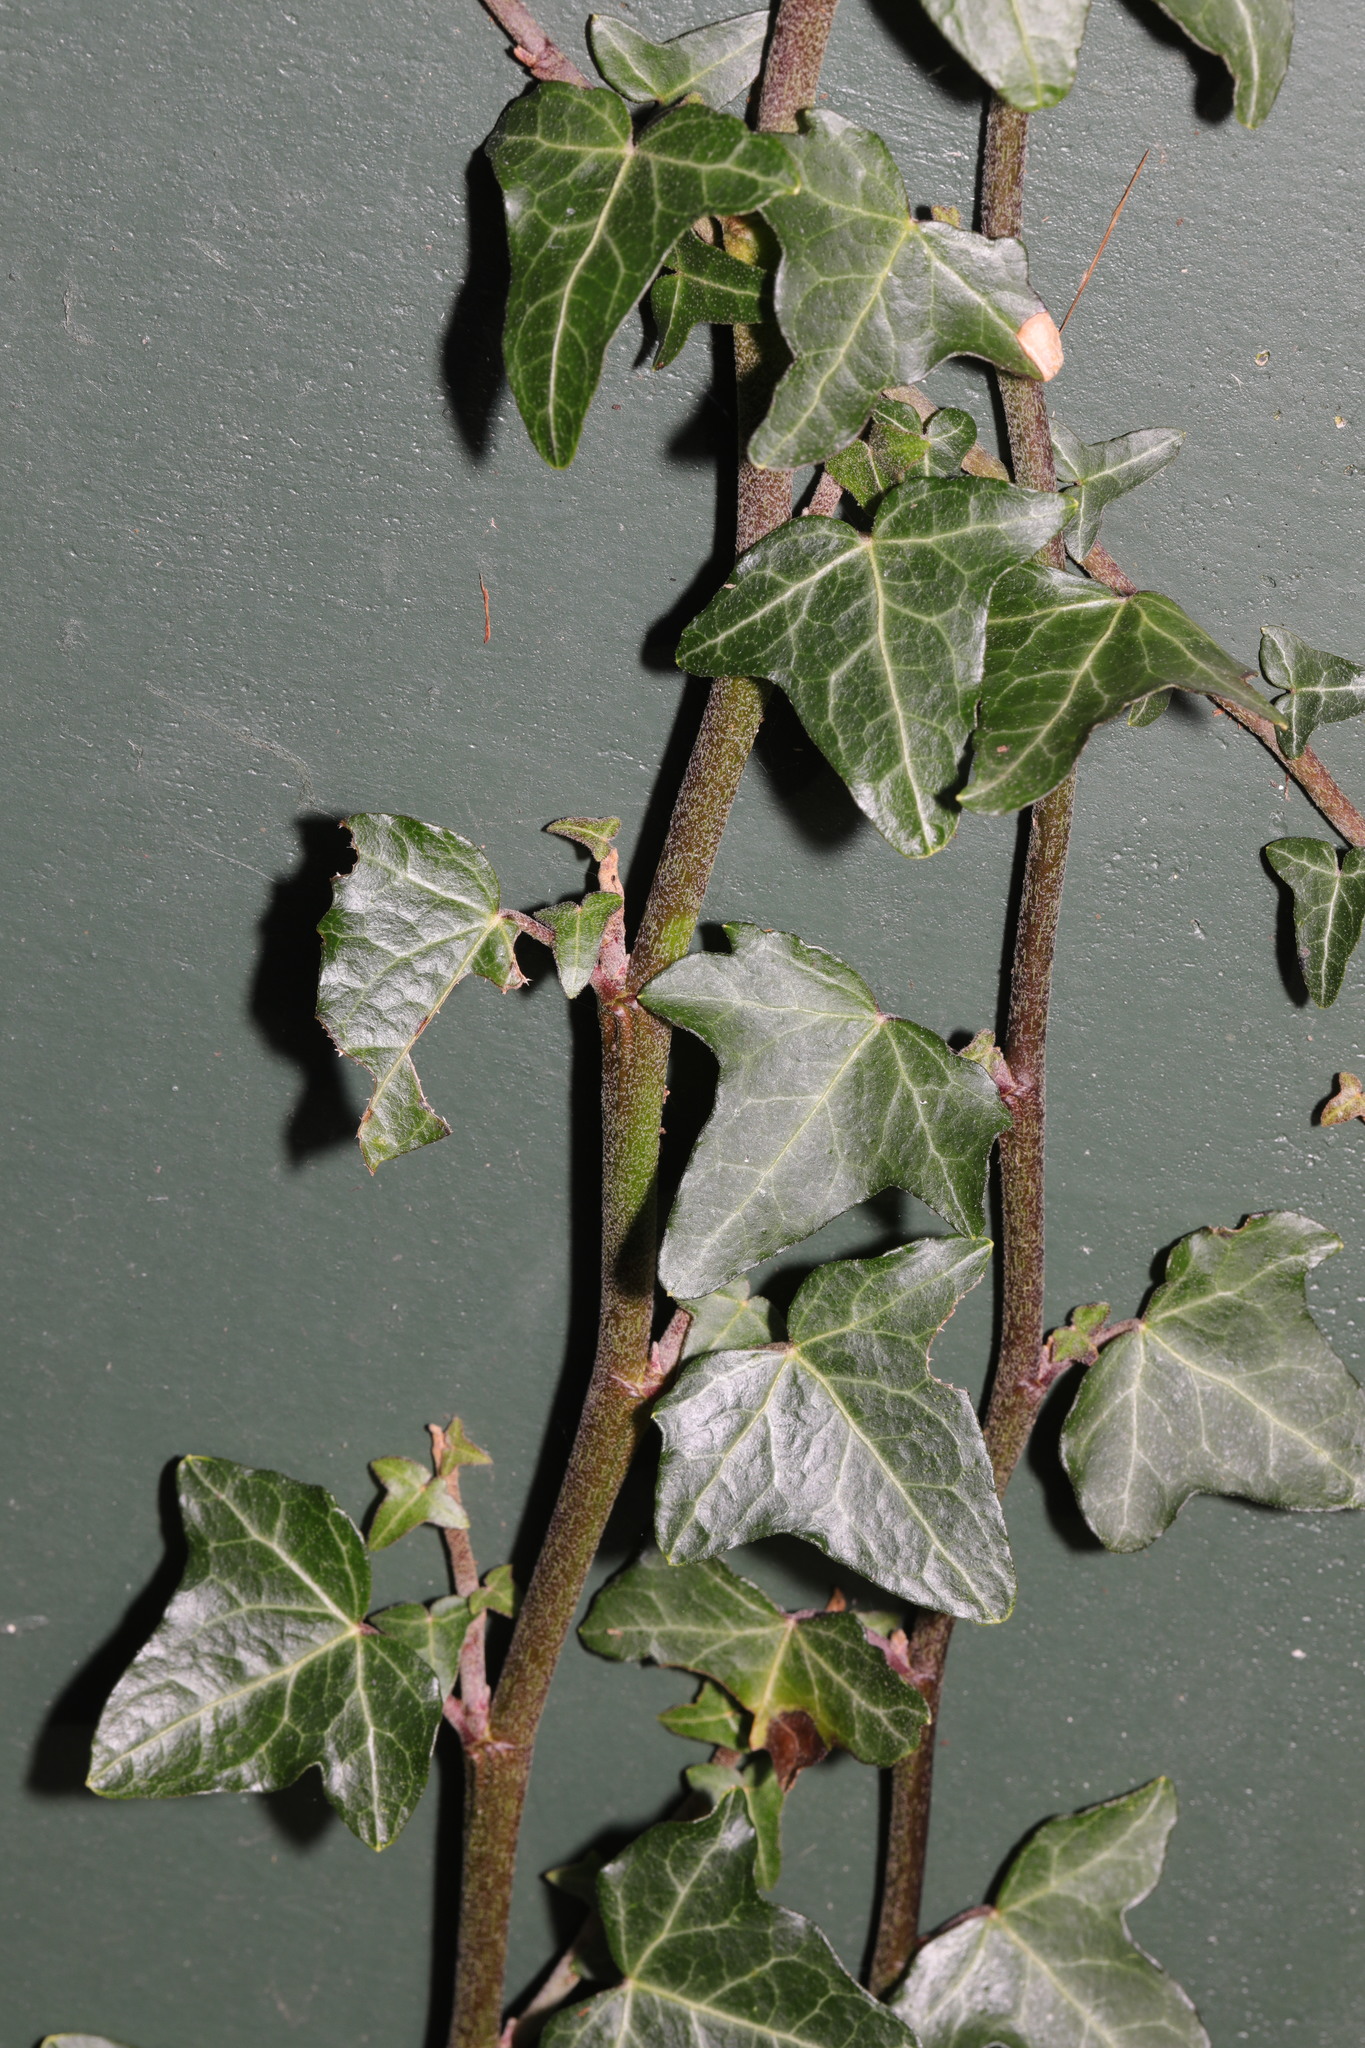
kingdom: Plantae
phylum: Tracheophyta
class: Magnoliopsida
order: Apiales
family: Araliaceae
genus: Hedera
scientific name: Hedera helix
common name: Ivy
